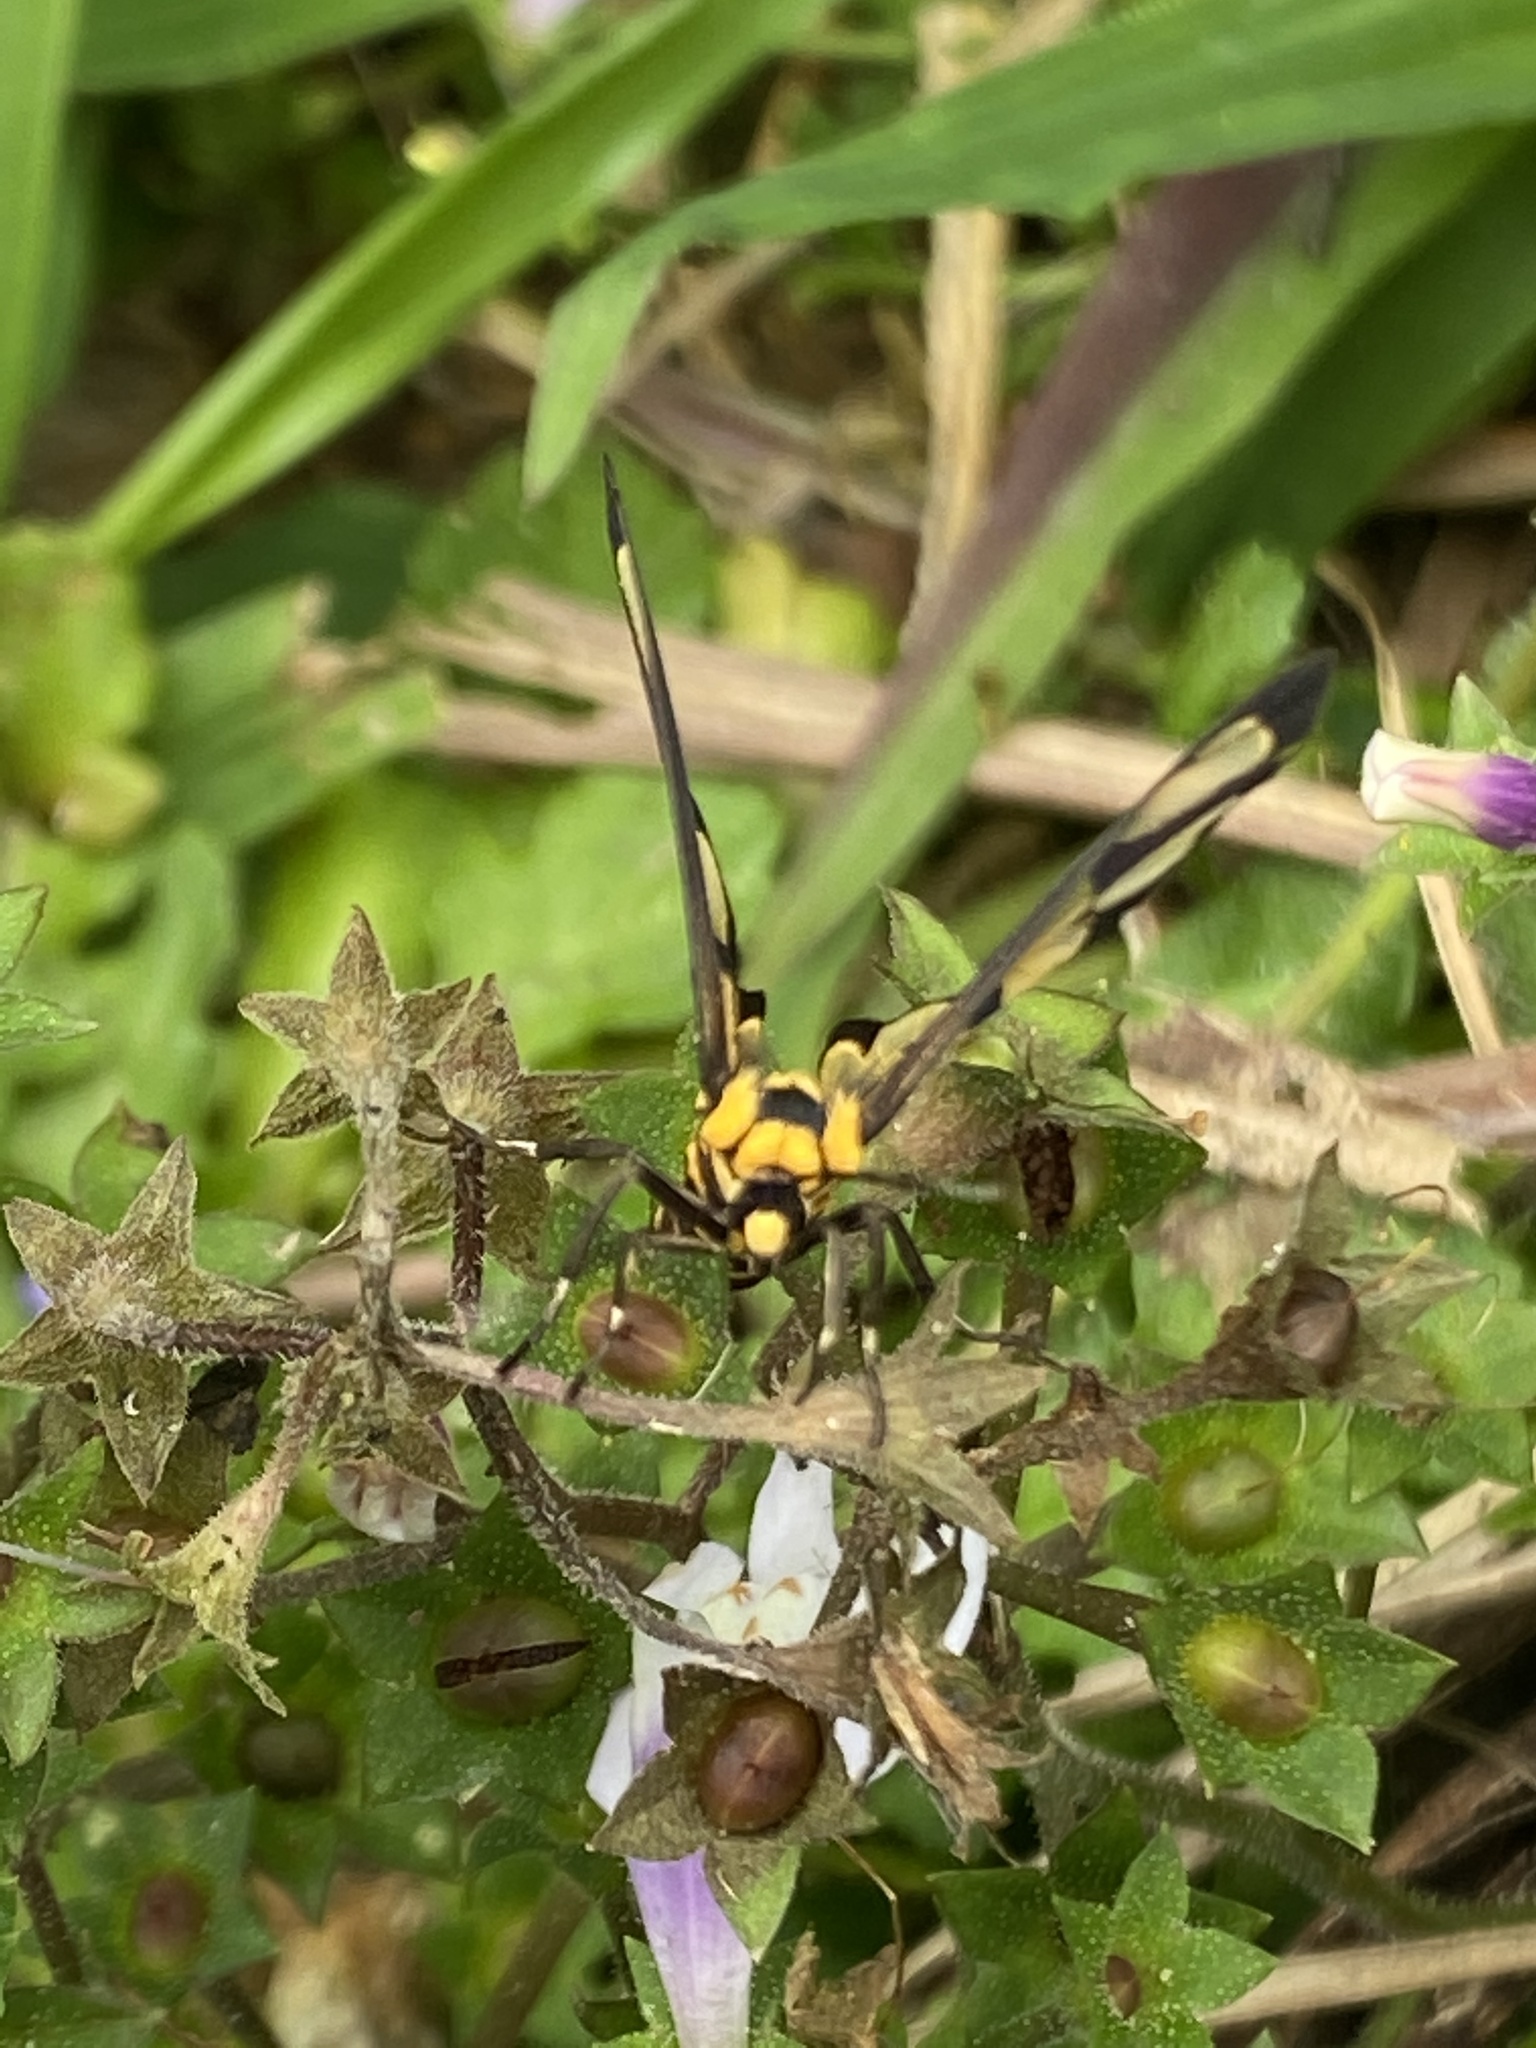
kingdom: Animalia
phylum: Arthropoda
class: Insecta
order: Lepidoptera
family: Erebidae
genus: Amata
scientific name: Amata persimilis
